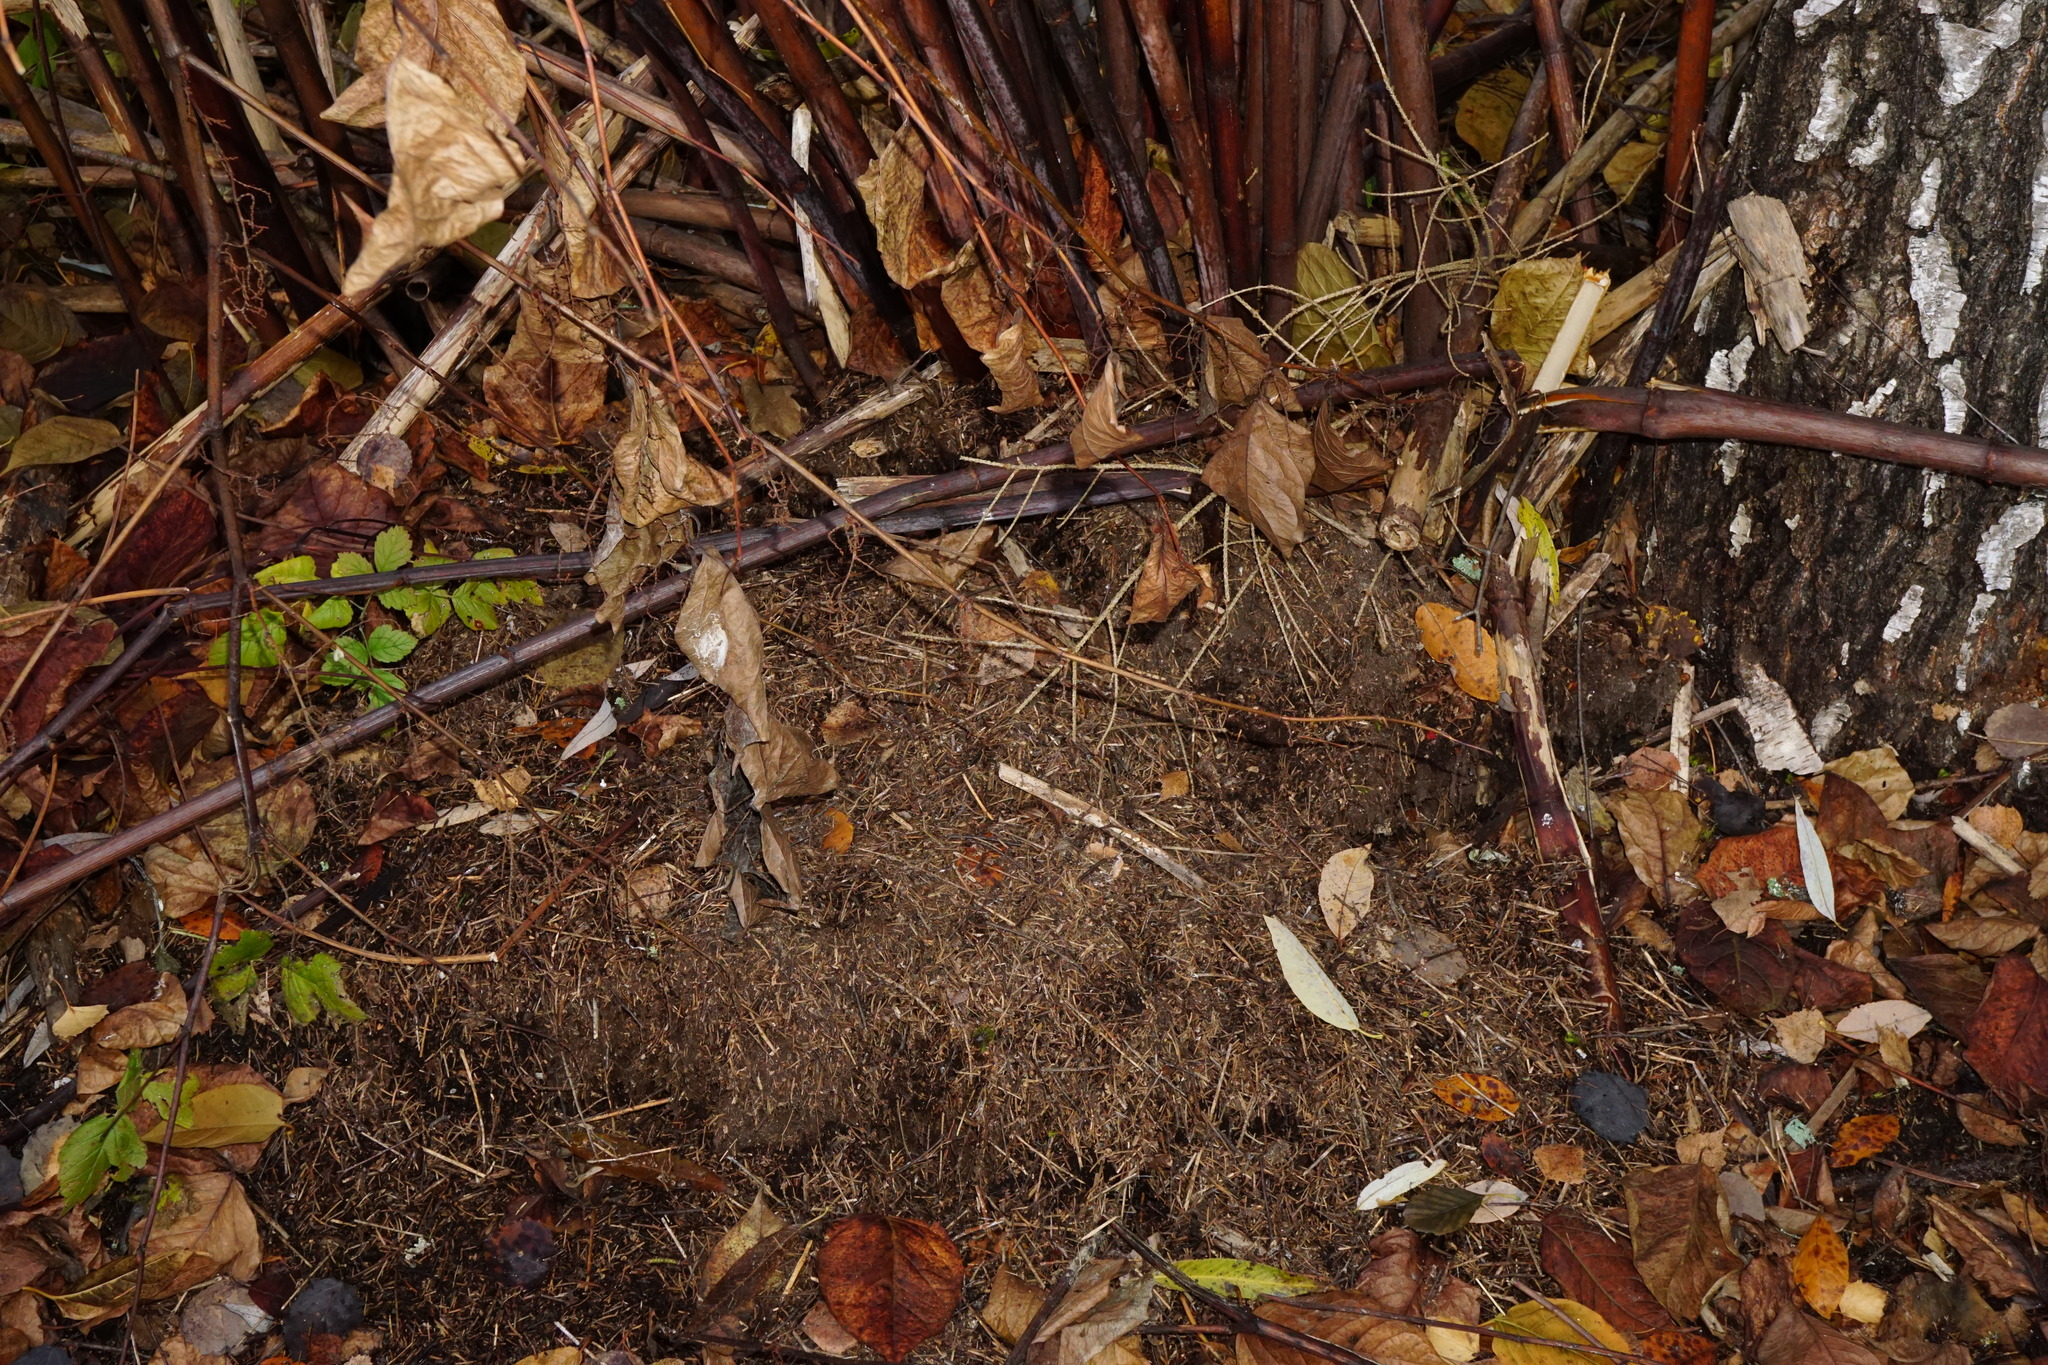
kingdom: Plantae
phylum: Tracheophyta
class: Magnoliopsida
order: Caryophyllales
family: Polygonaceae
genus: Reynoutria
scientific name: Reynoutria japonica
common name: Japanese knotweed
